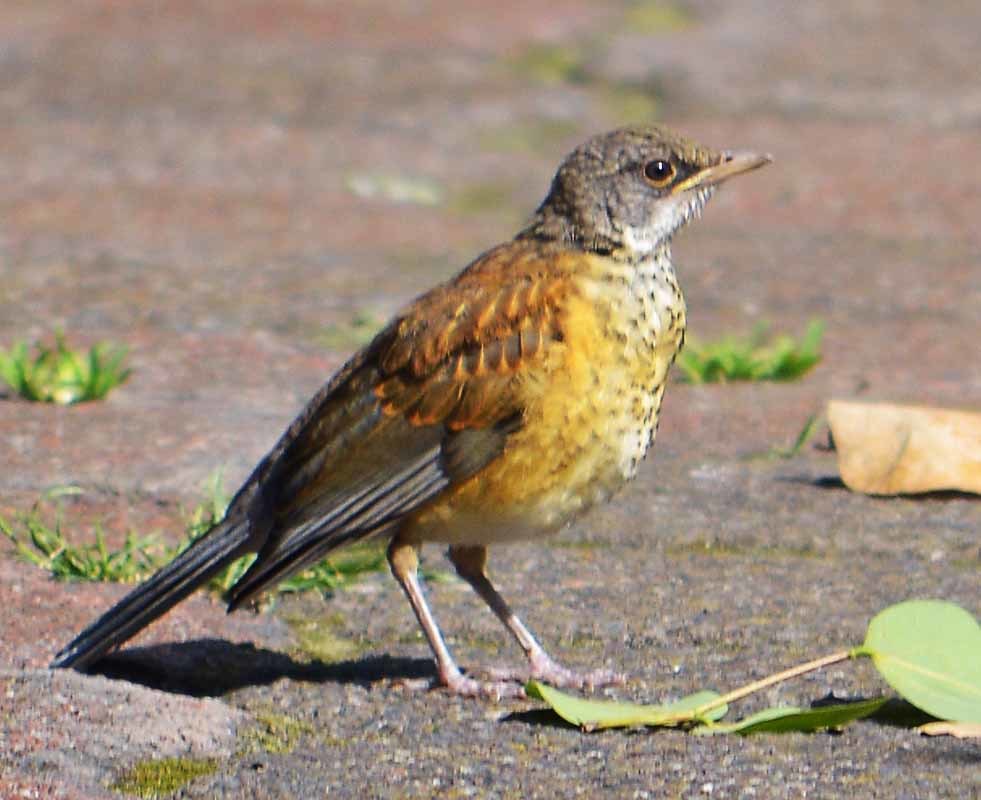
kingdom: Animalia
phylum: Chordata
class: Aves
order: Passeriformes
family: Turdidae
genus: Turdus
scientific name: Turdus rufopalliatus
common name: Rufous-backed robin
